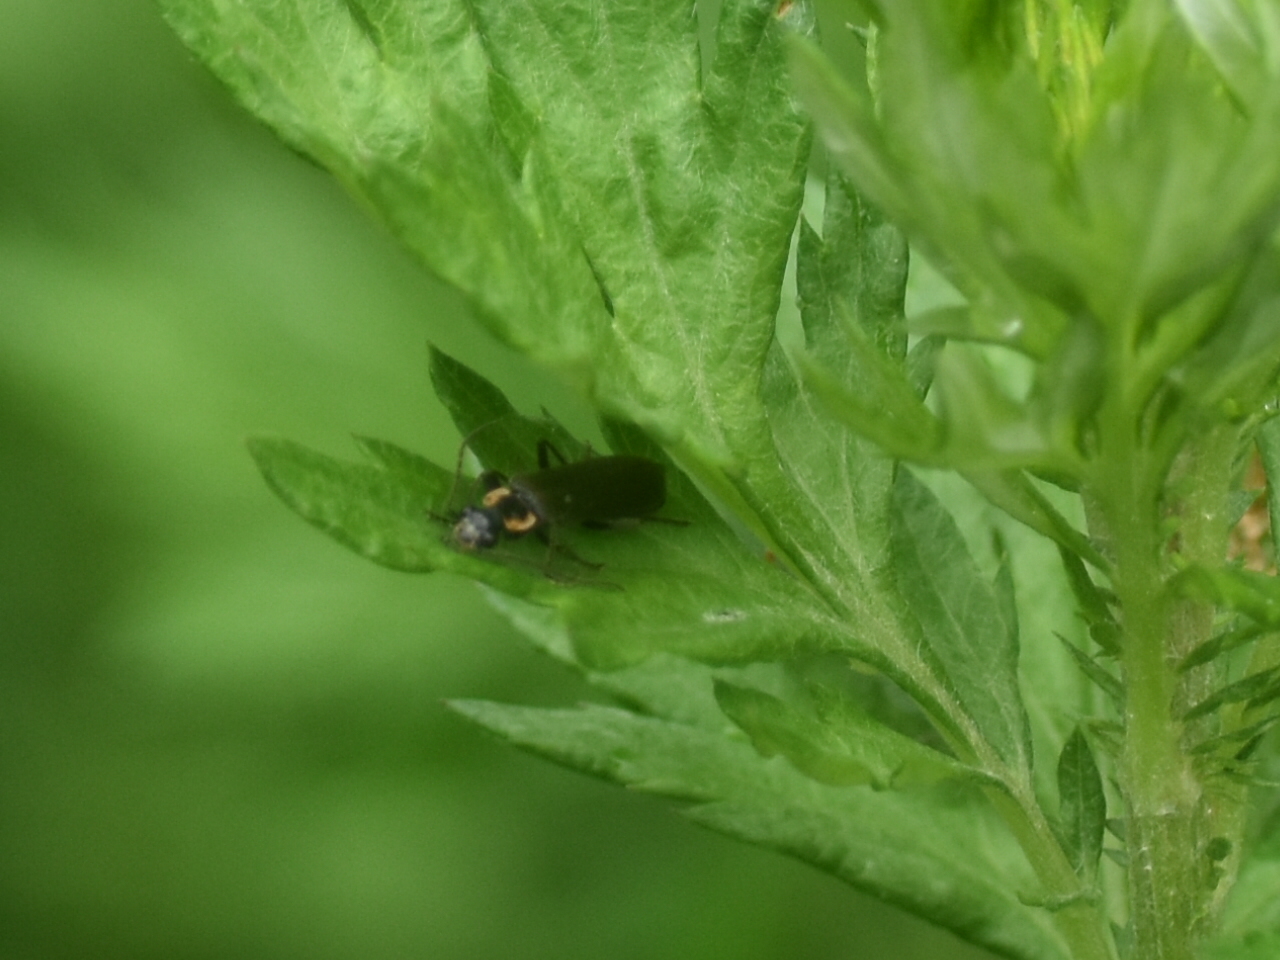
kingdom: Animalia
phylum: Arthropoda
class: Insecta
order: Coleoptera
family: Cantharidae
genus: Podabrus
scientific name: Podabrus rugosulus
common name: Wrinkled soldier beetle
